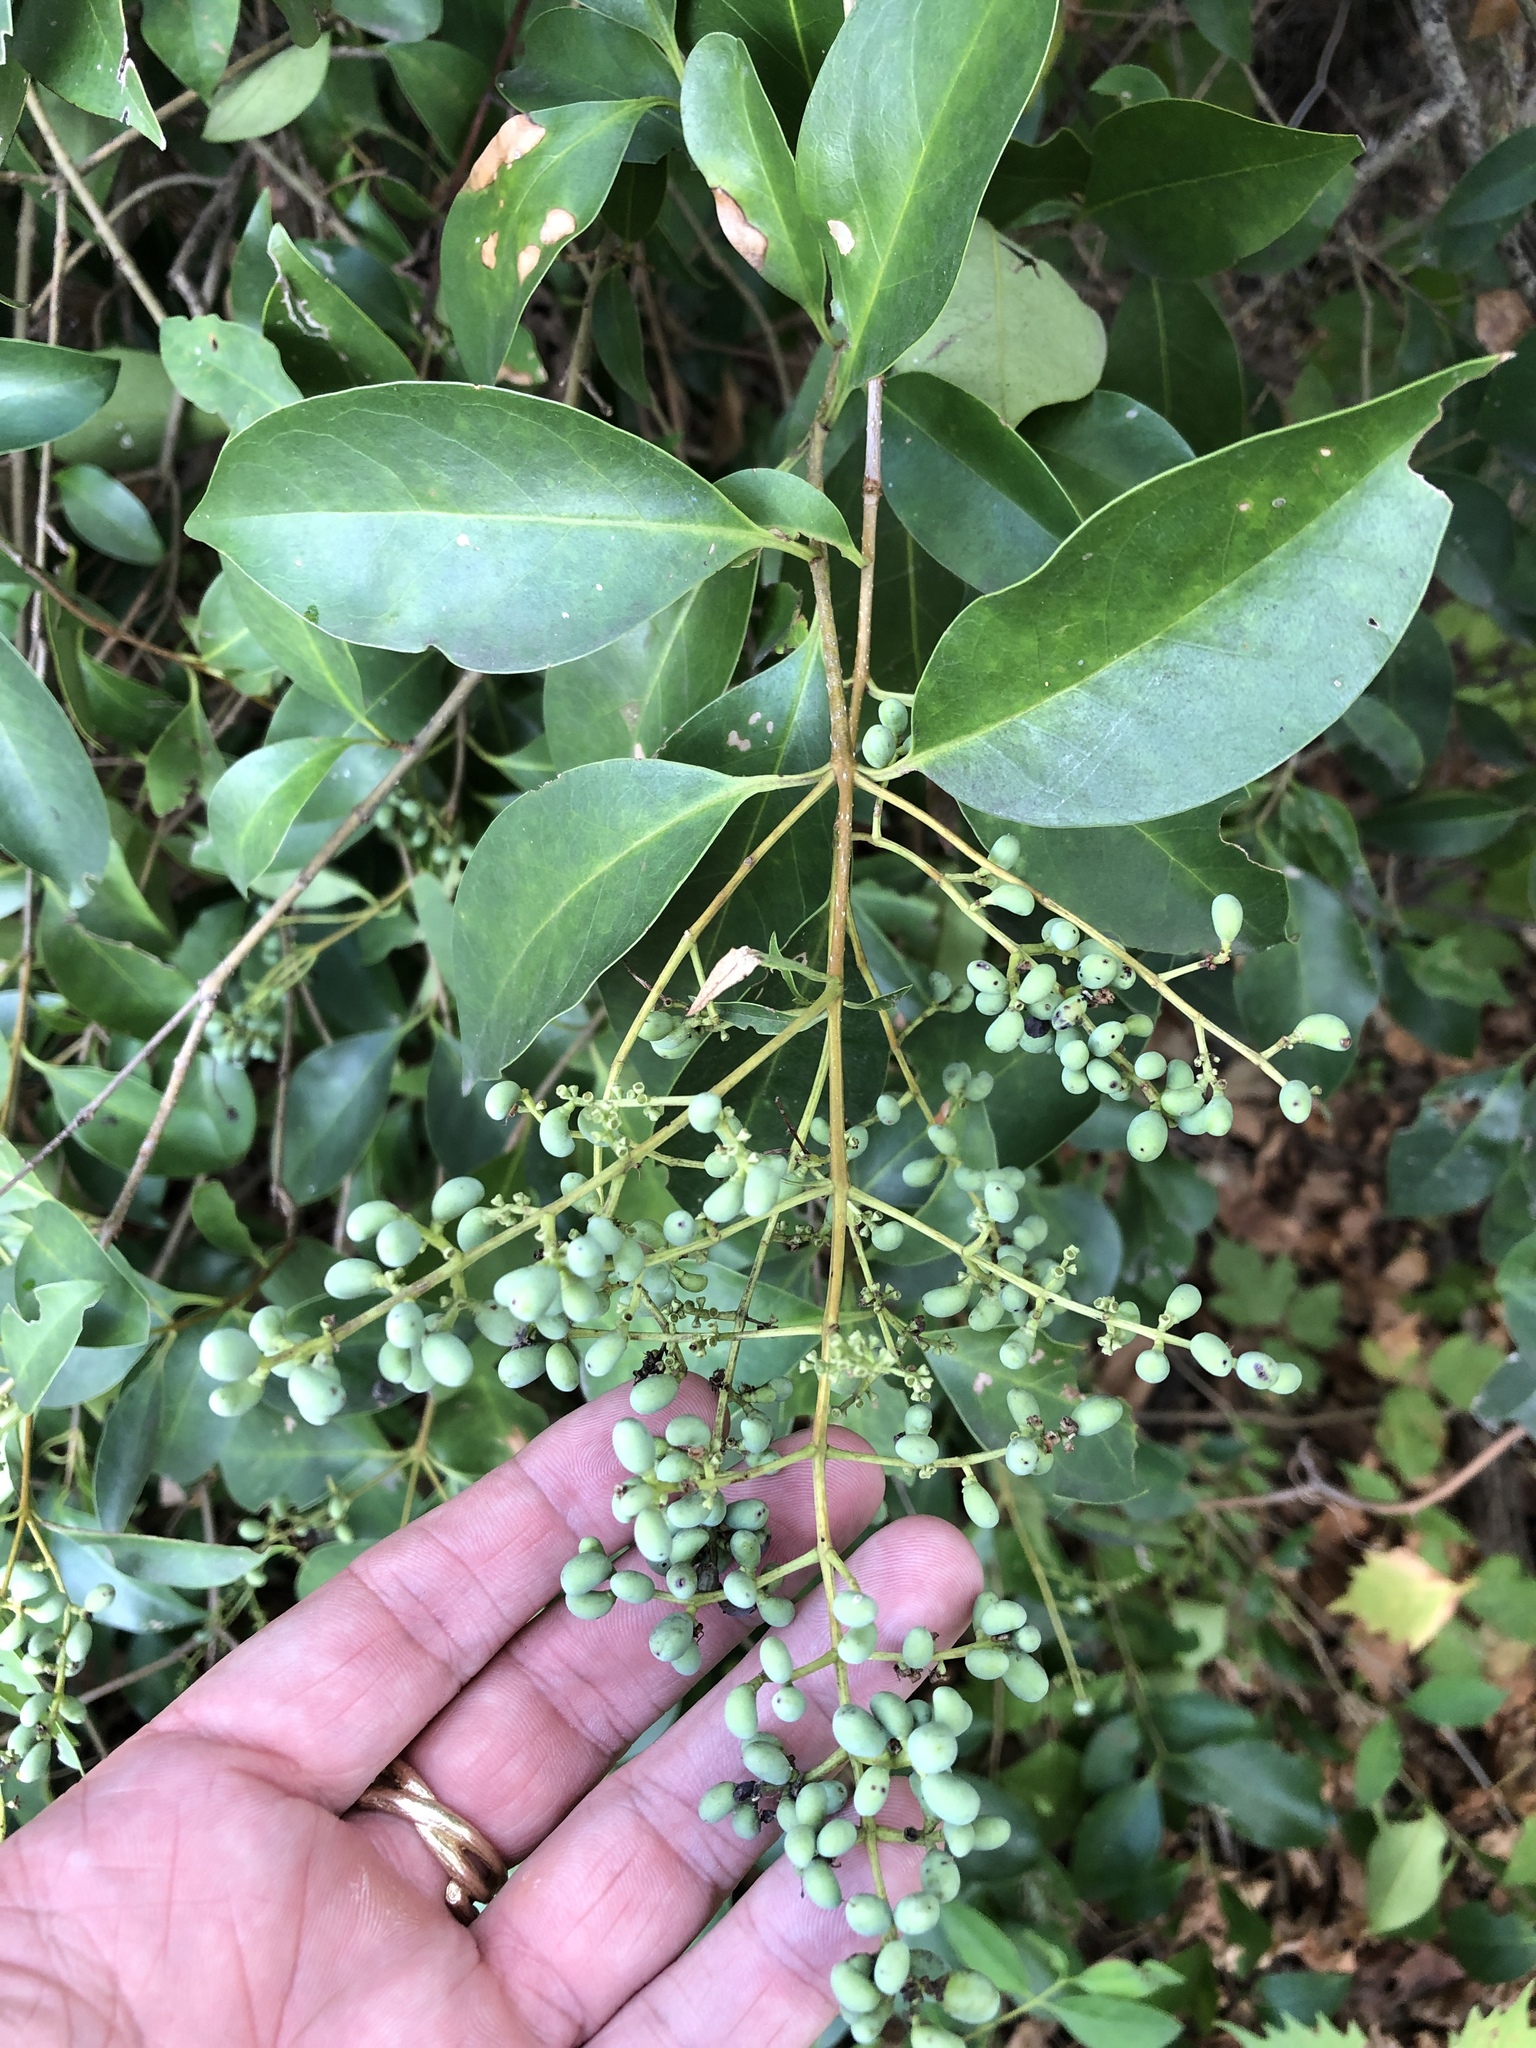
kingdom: Plantae
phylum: Tracheophyta
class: Magnoliopsida
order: Lamiales
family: Oleaceae
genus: Ligustrum
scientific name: Ligustrum lucidum
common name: Glossy privet
